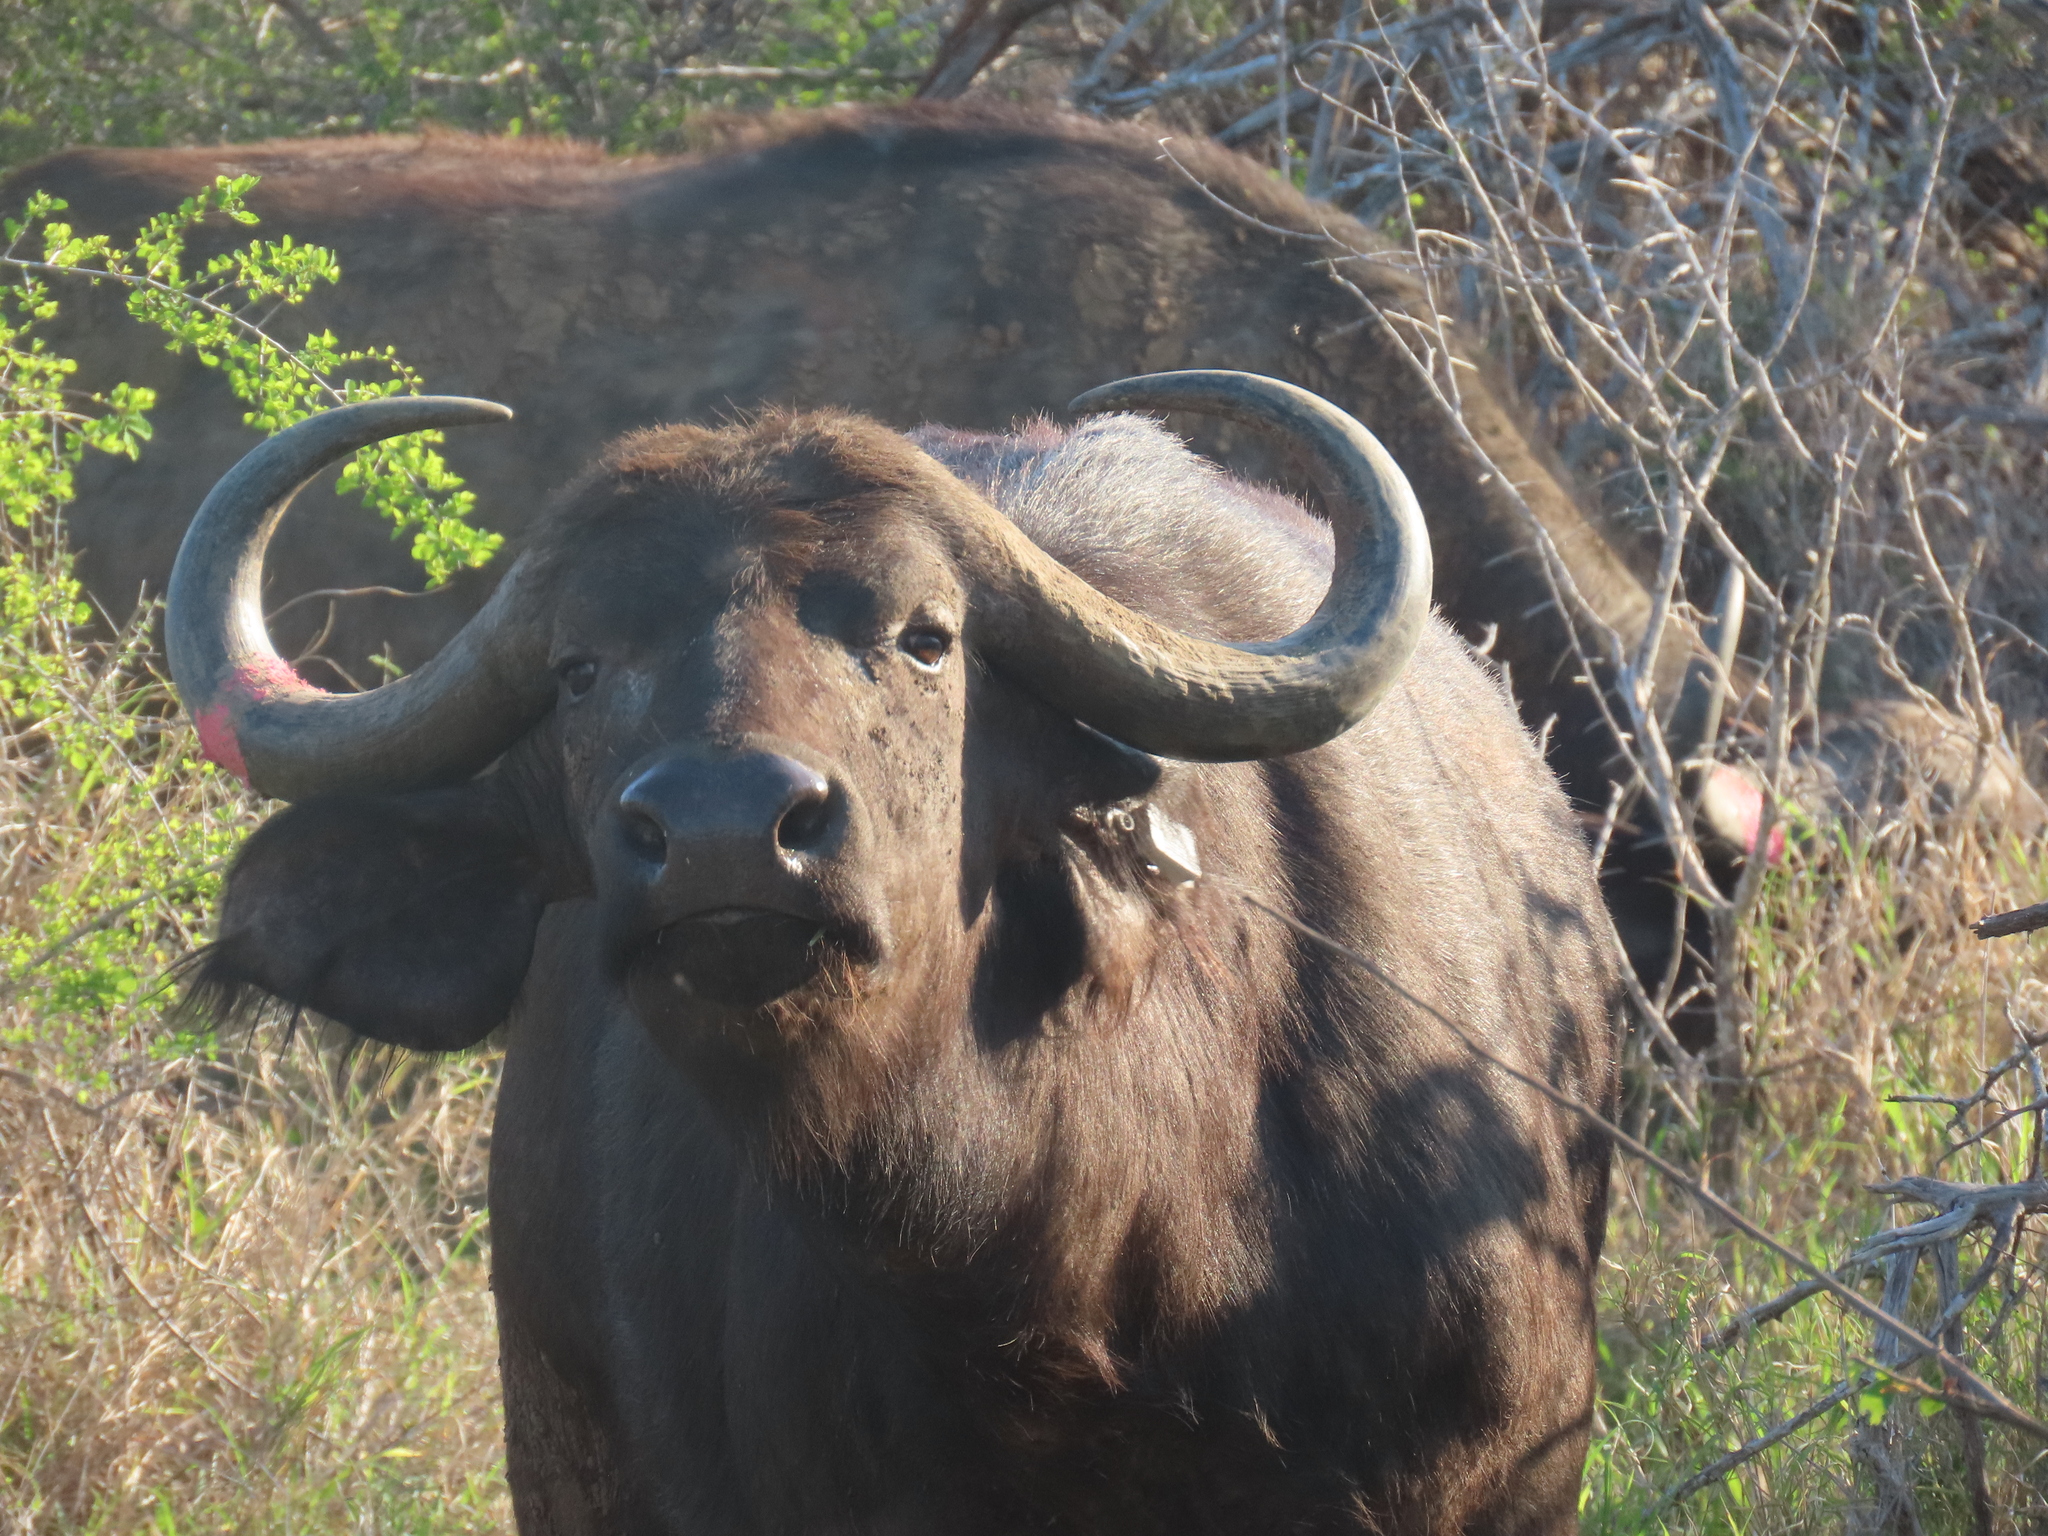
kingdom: Animalia
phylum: Chordata
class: Mammalia
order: Artiodactyla
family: Bovidae
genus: Syncerus
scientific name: Syncerus caffer
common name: African buffalo
